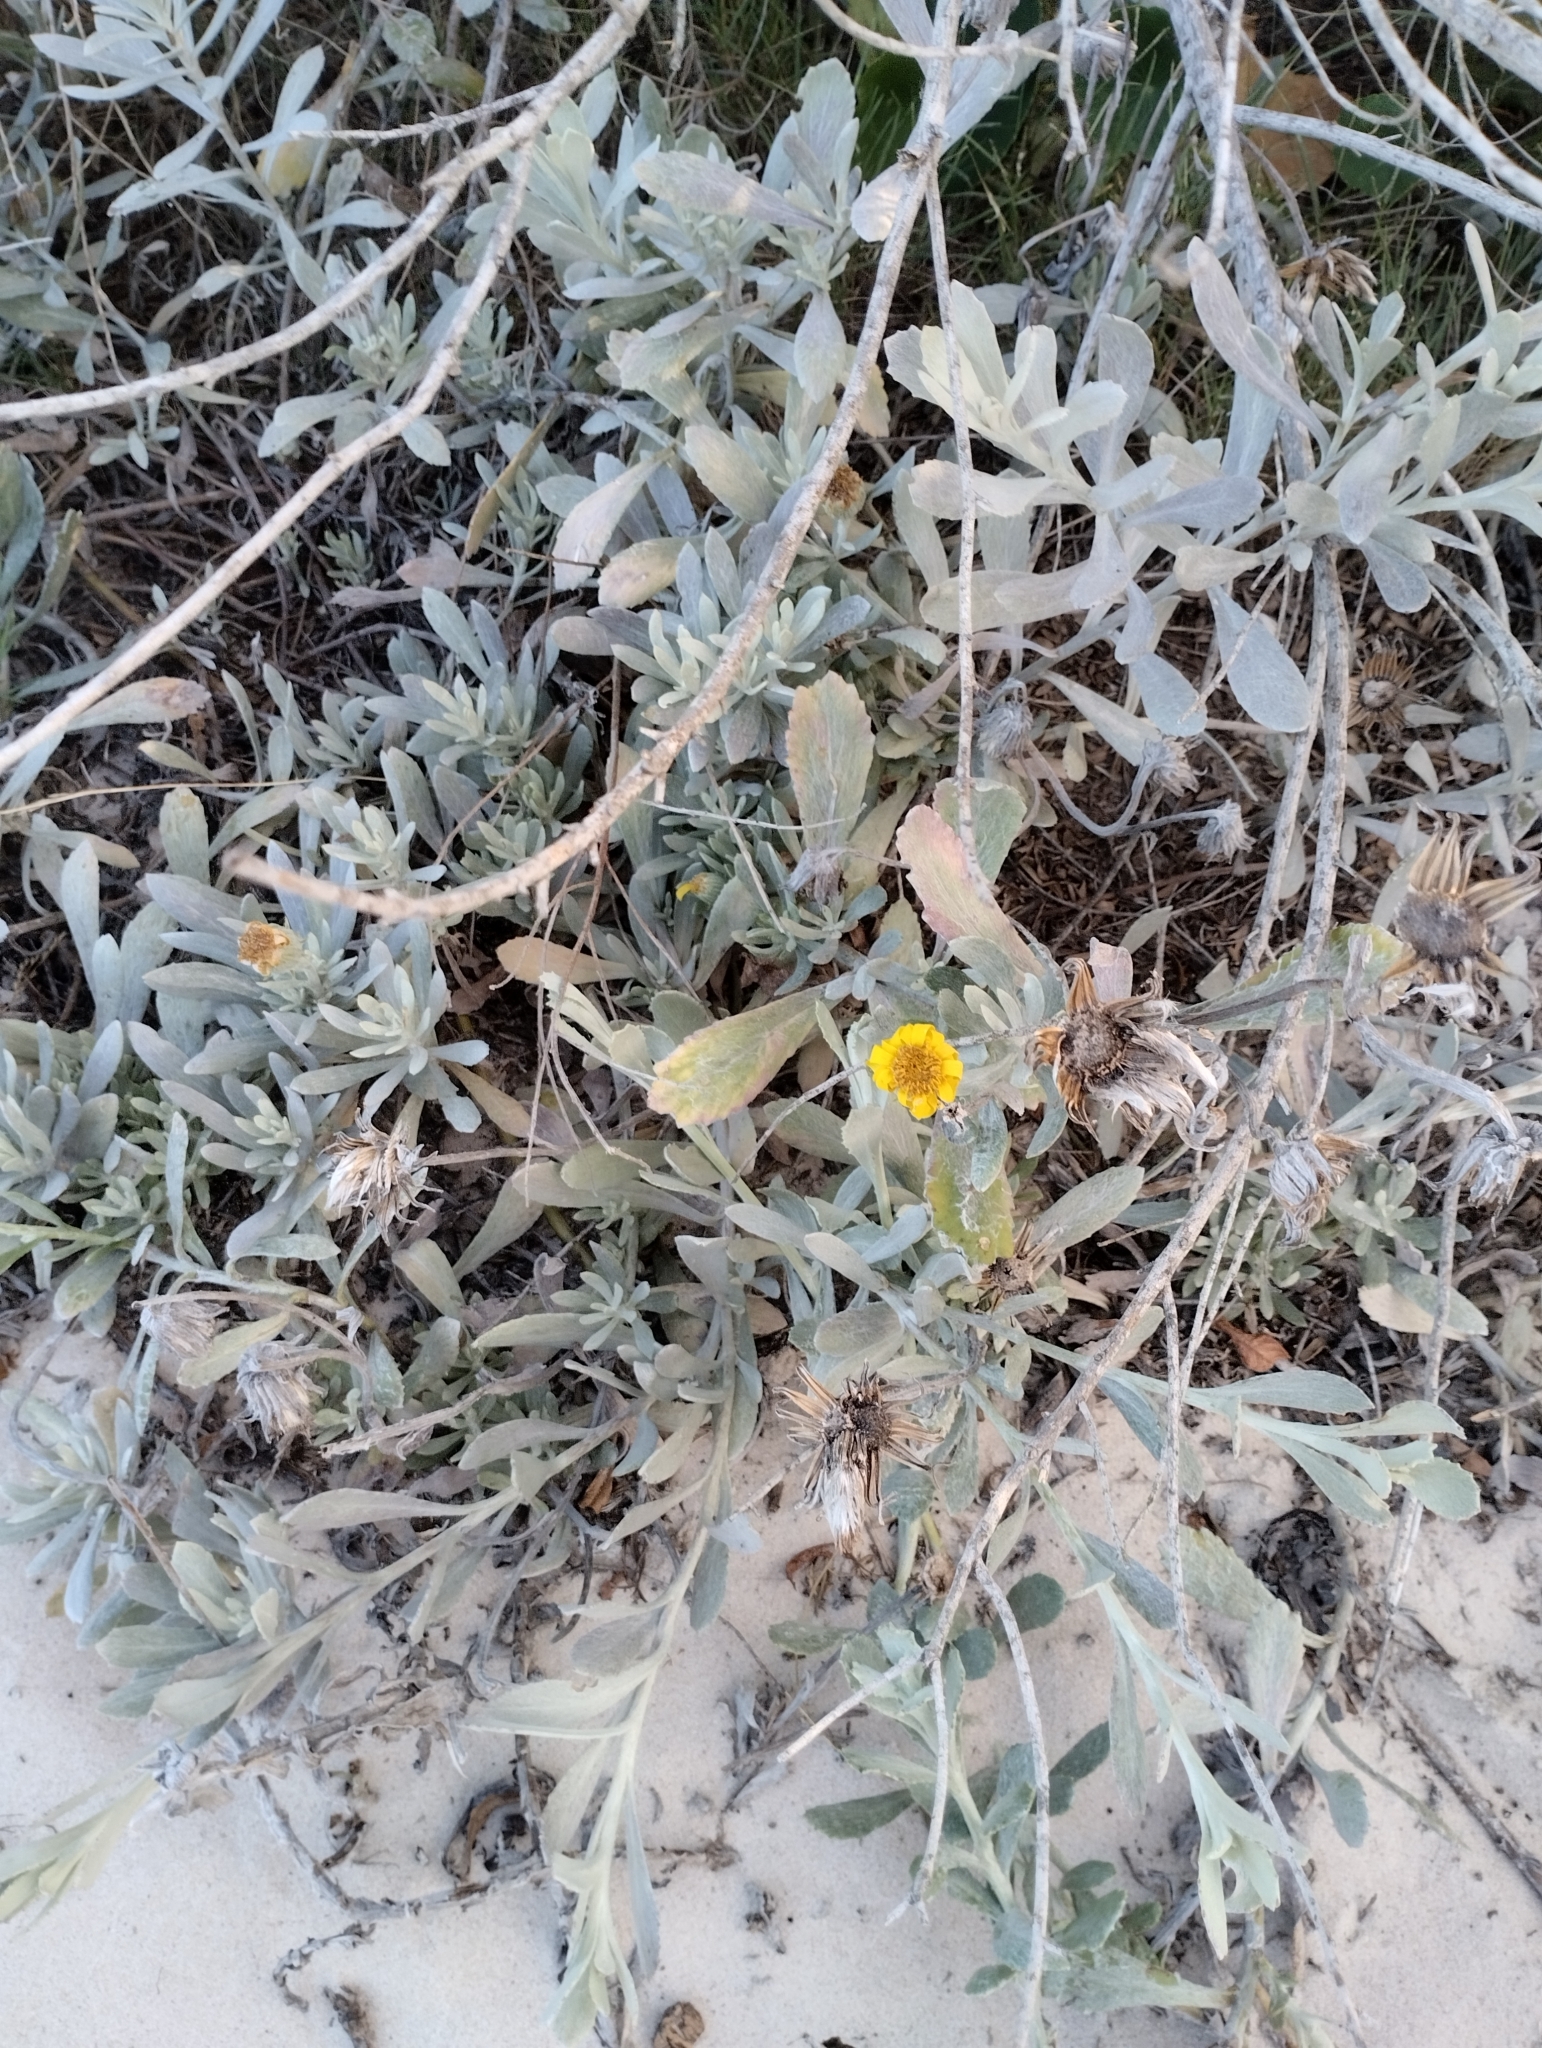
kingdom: Plantae
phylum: Tracheophyta
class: Magnoliopsida
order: Asterales
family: Asteraceae
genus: Senecio
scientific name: Senecio crassiflorus
